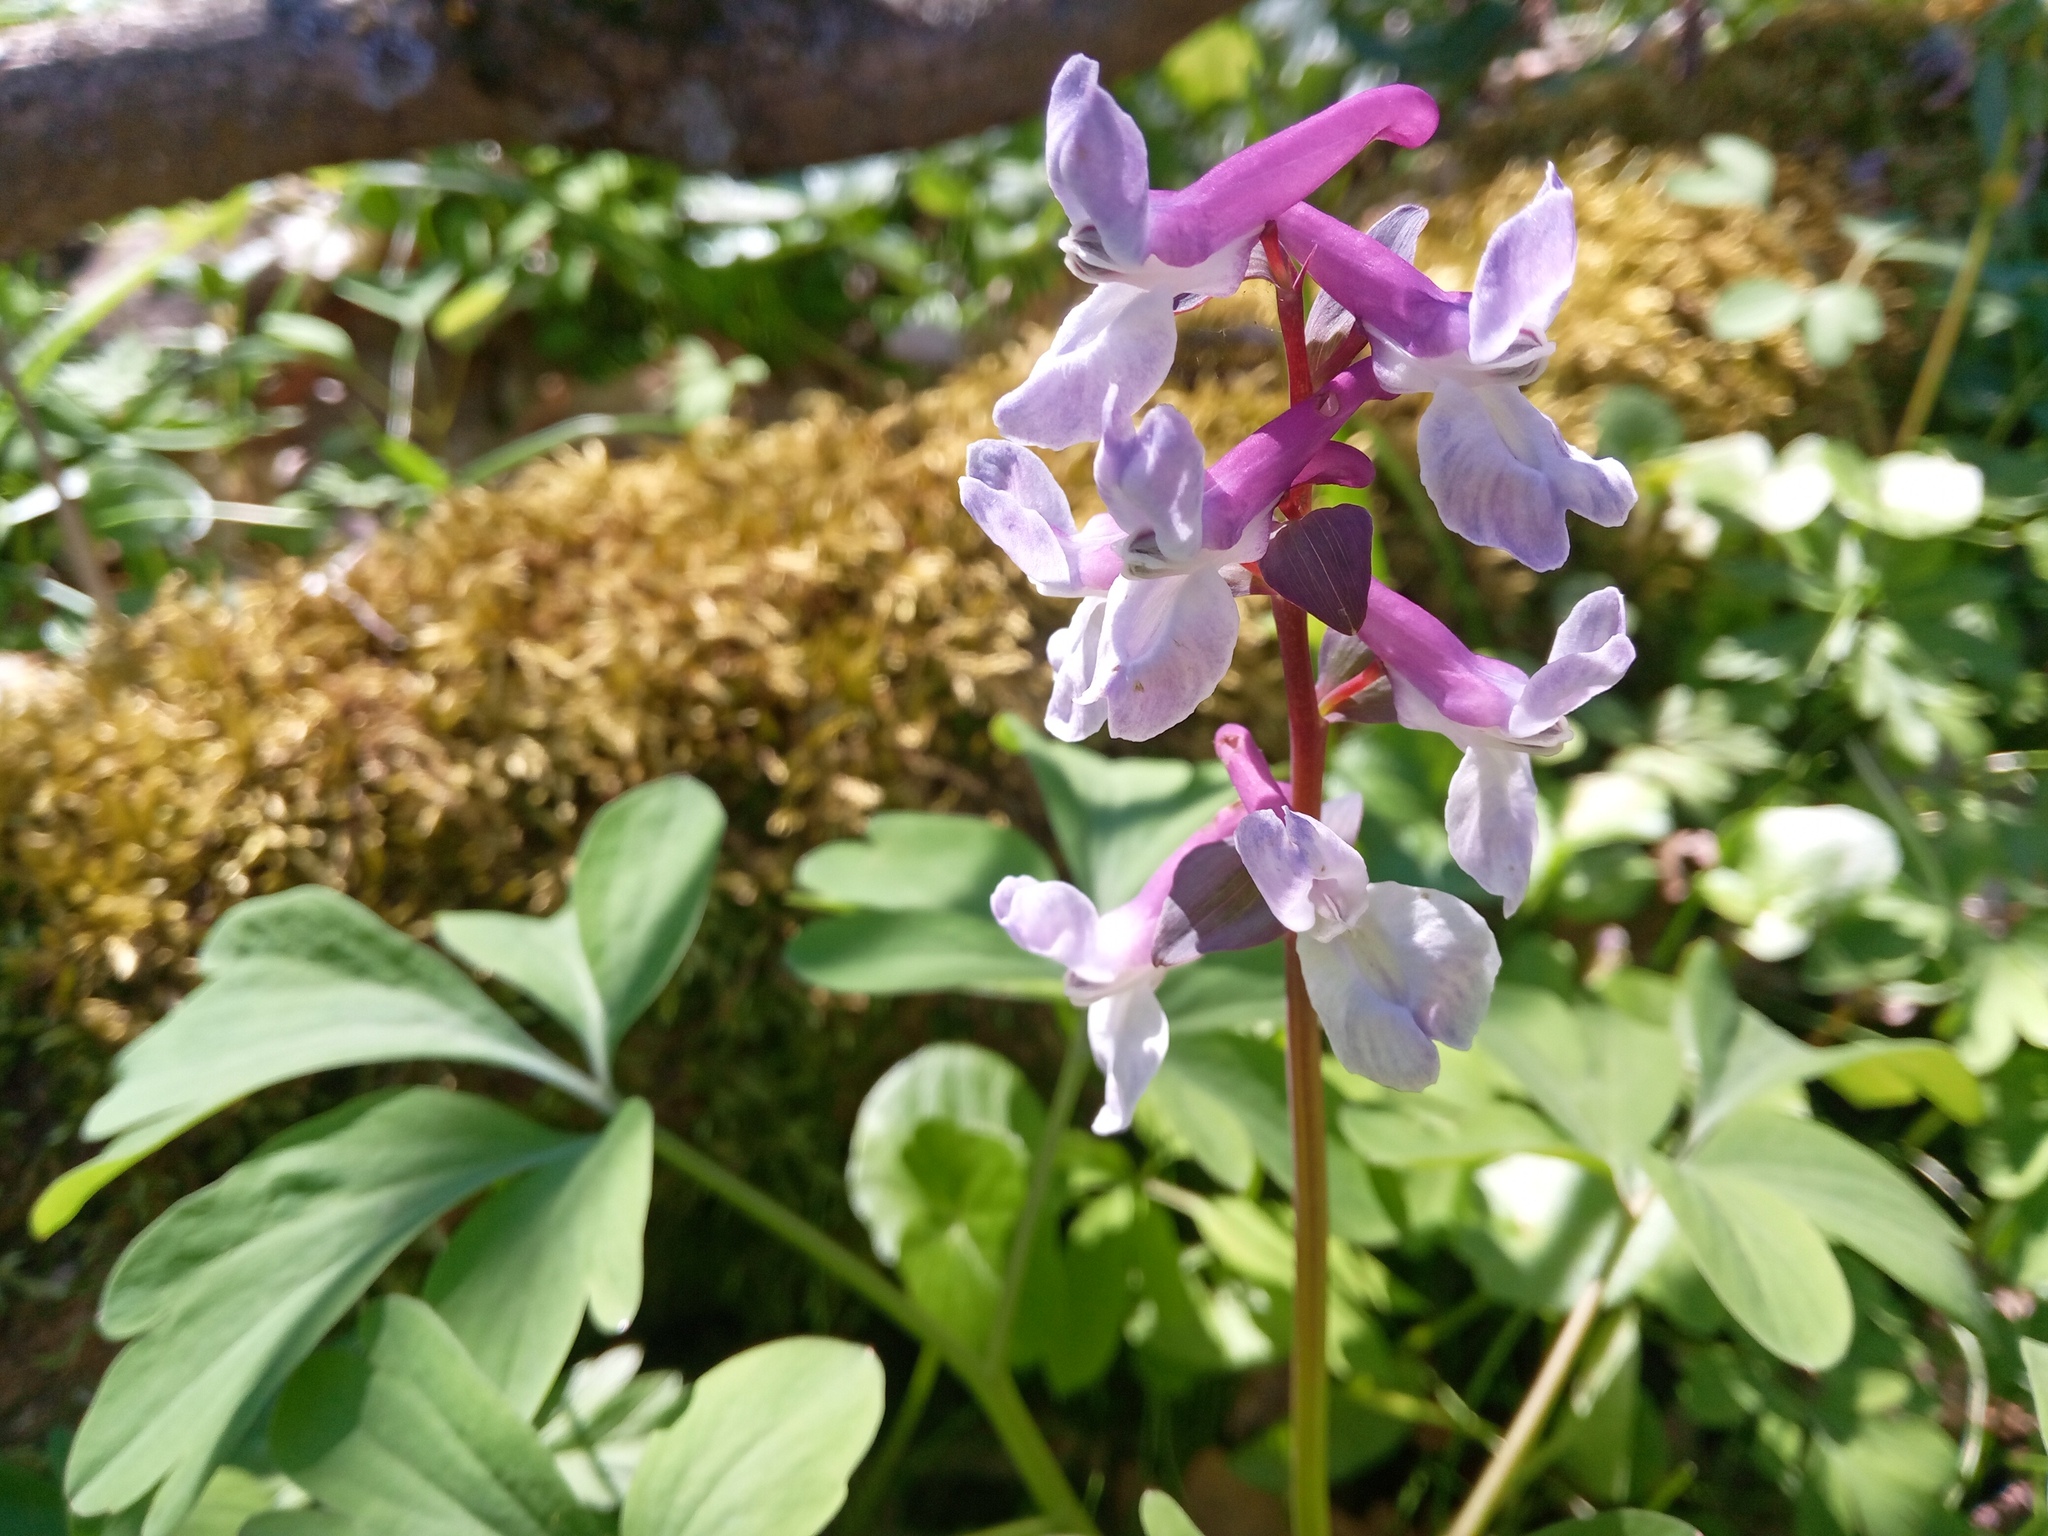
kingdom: Plantae
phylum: Tracheophyta
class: Magnoliopsida
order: Ranunculales
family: Papaveraceae
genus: Corydalis
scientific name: Corydalis cava
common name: Hollowroot
